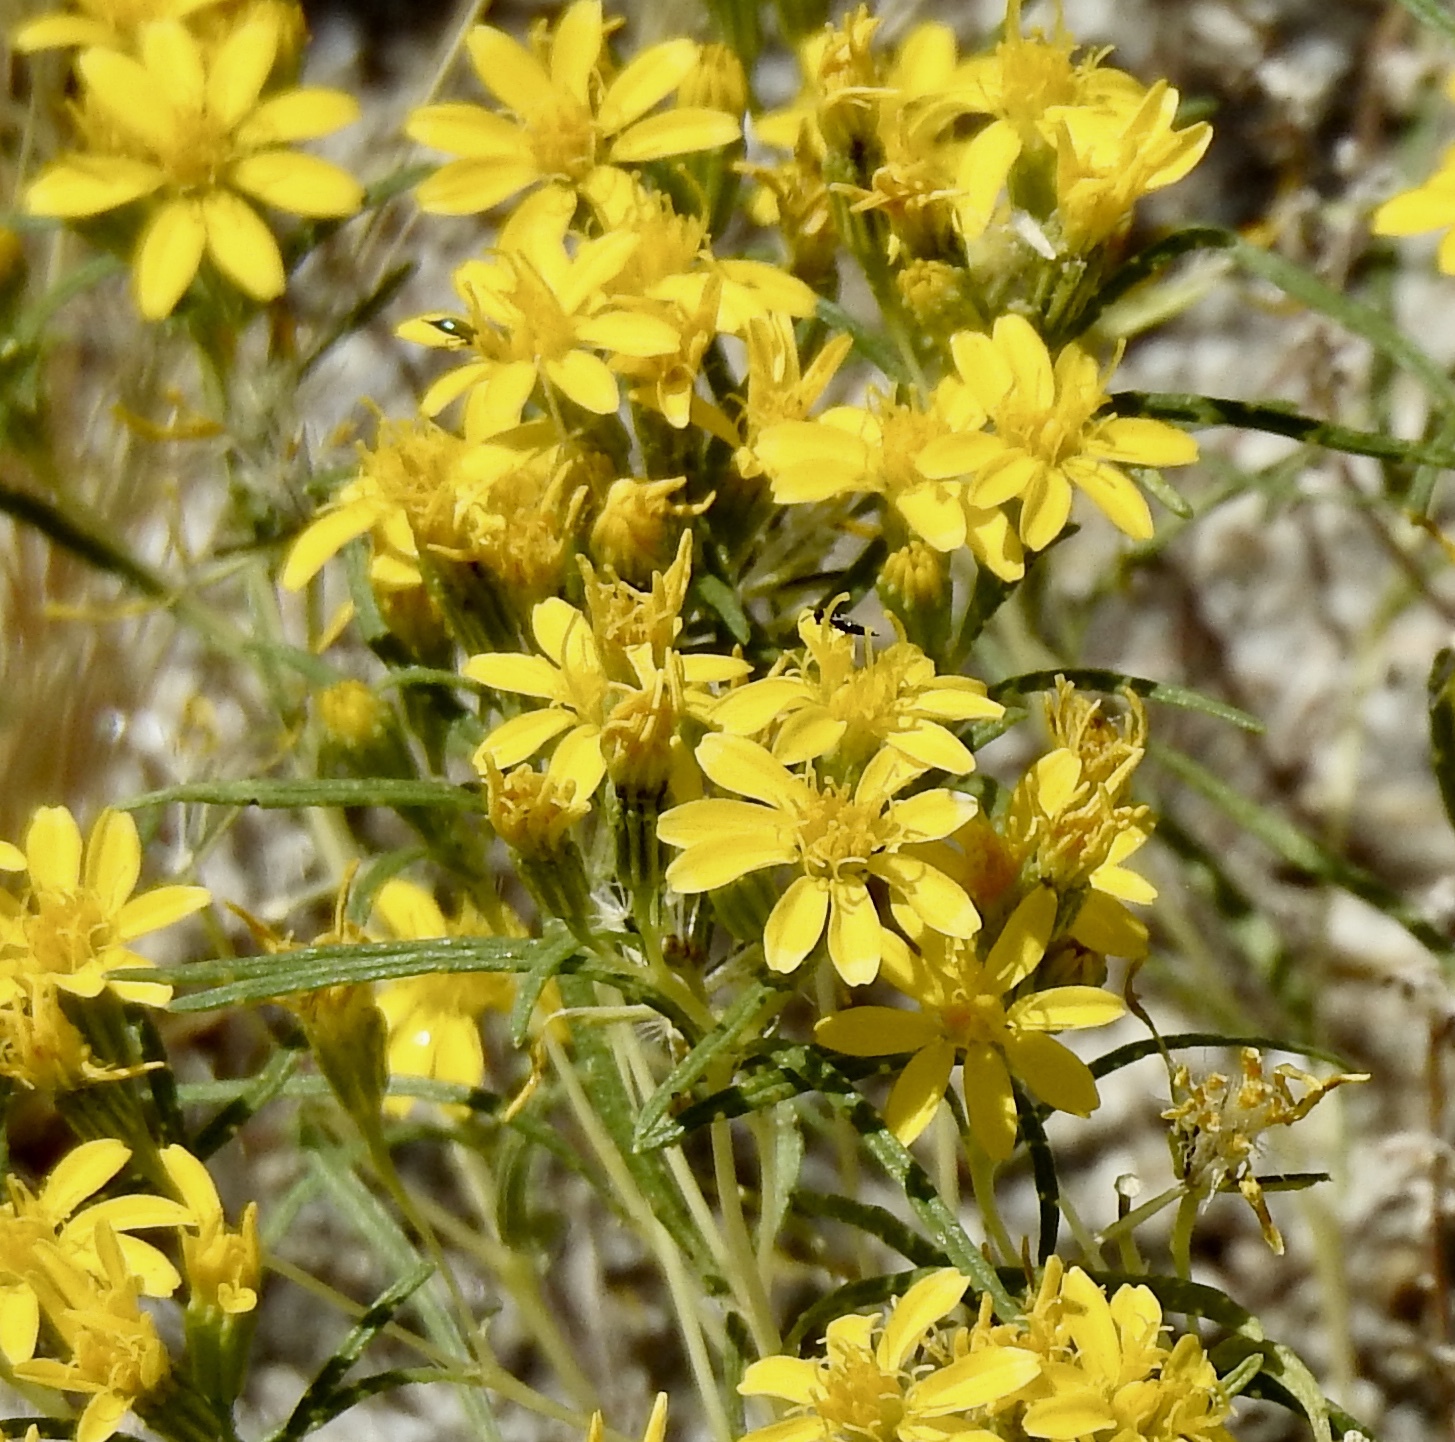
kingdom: Plantae
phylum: Tracheophyta
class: Magnoliopsida
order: Asterales
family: Asteraceae
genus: Pectis
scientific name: Pectis papposa
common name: Many-bristle chinchweed
